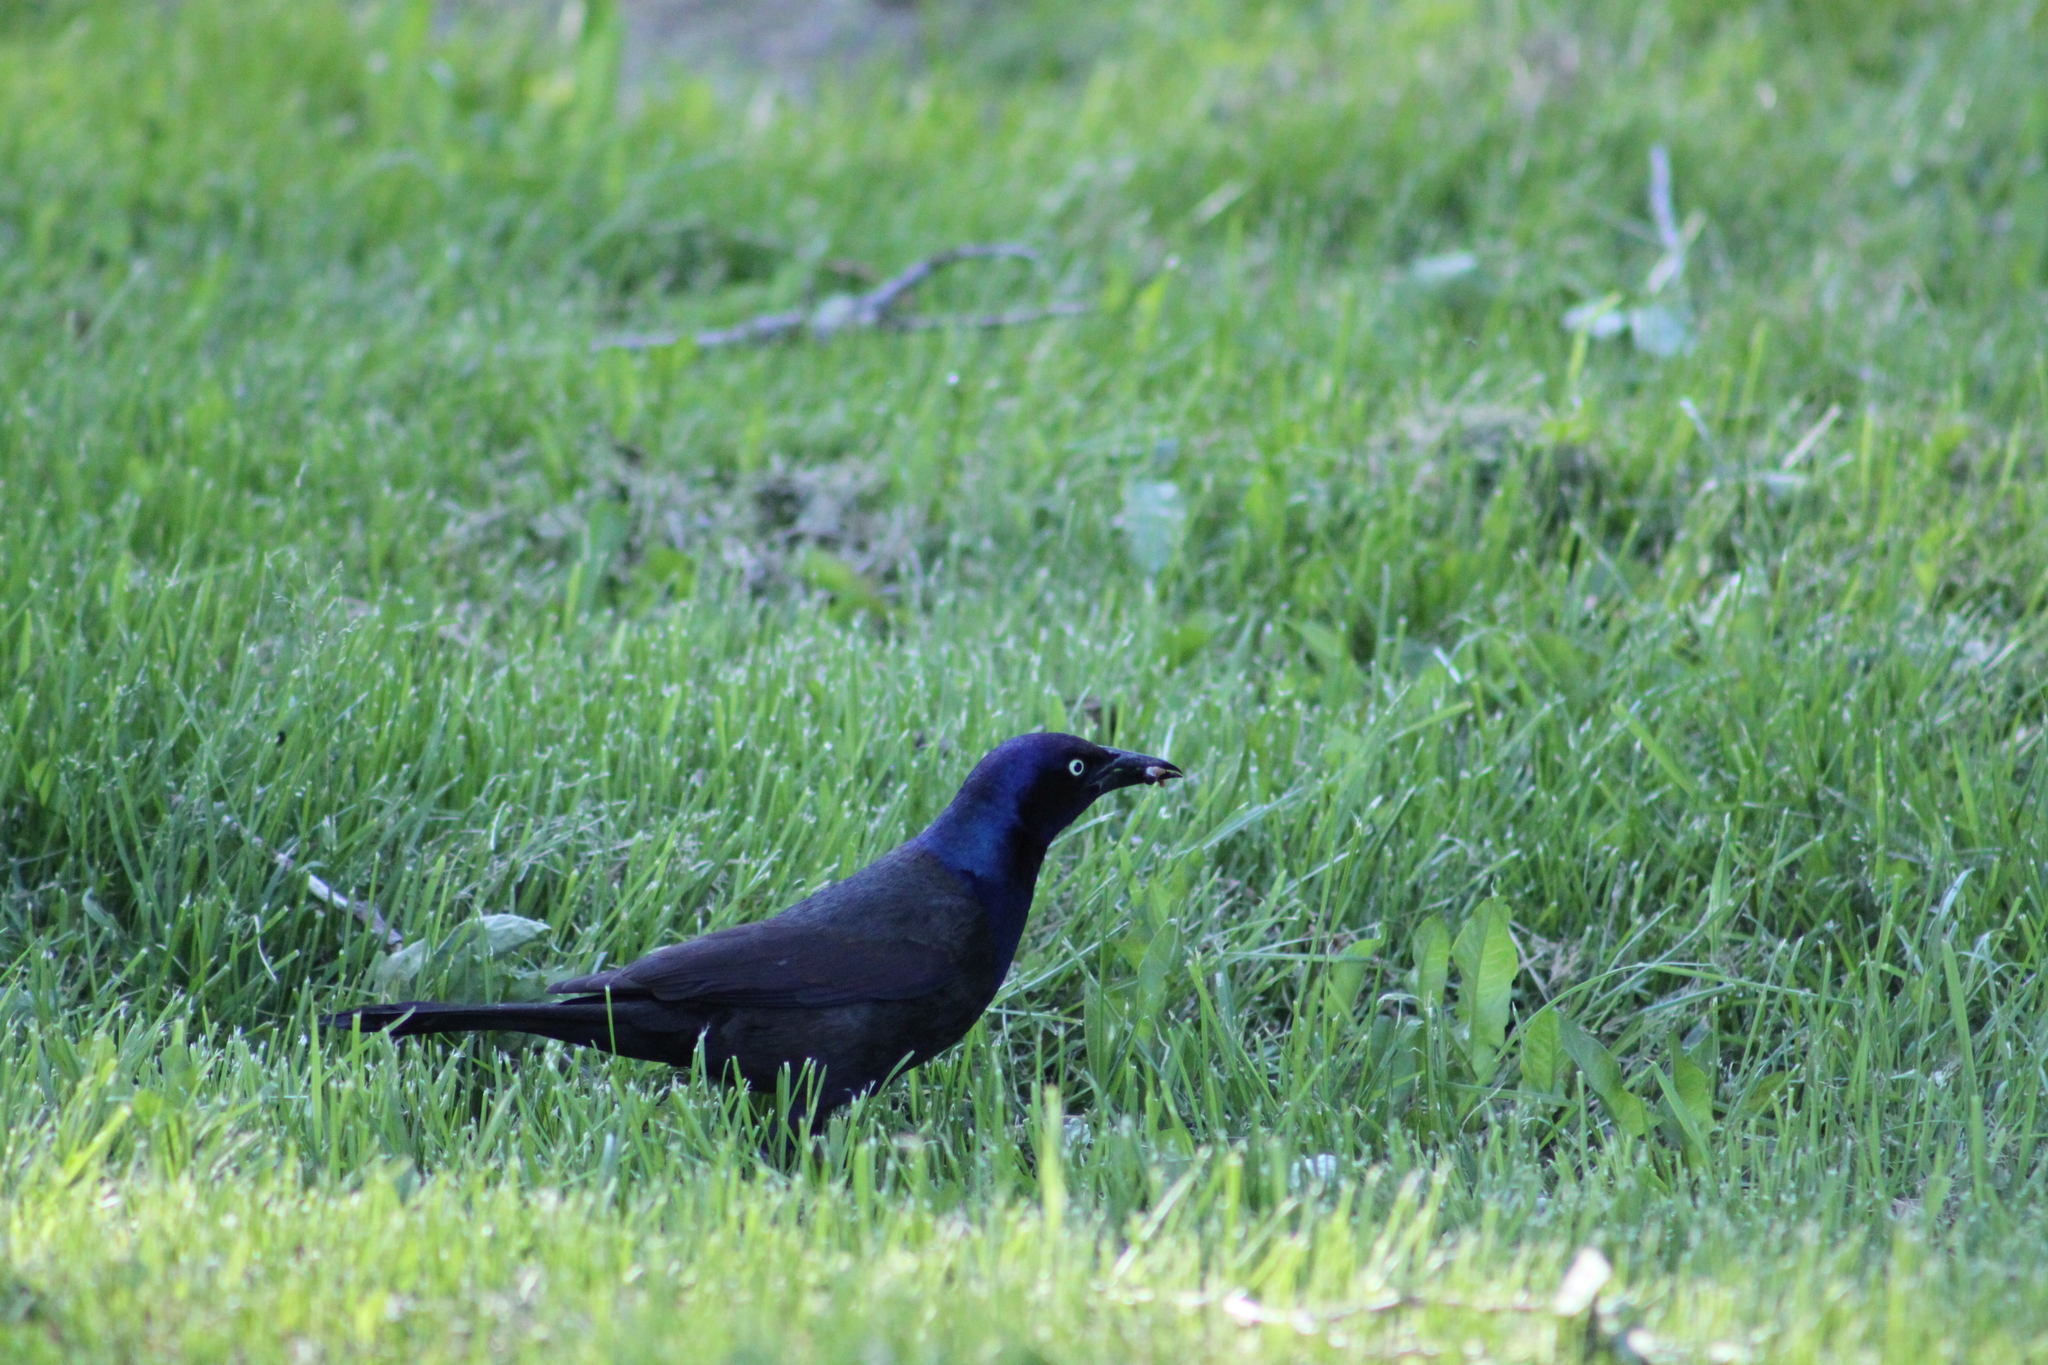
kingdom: Animalia
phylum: Chordata
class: Aves
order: Passeriformes
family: Icteridae
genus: Quiscalus
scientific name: Quiscalus quiscula
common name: Common grackle
